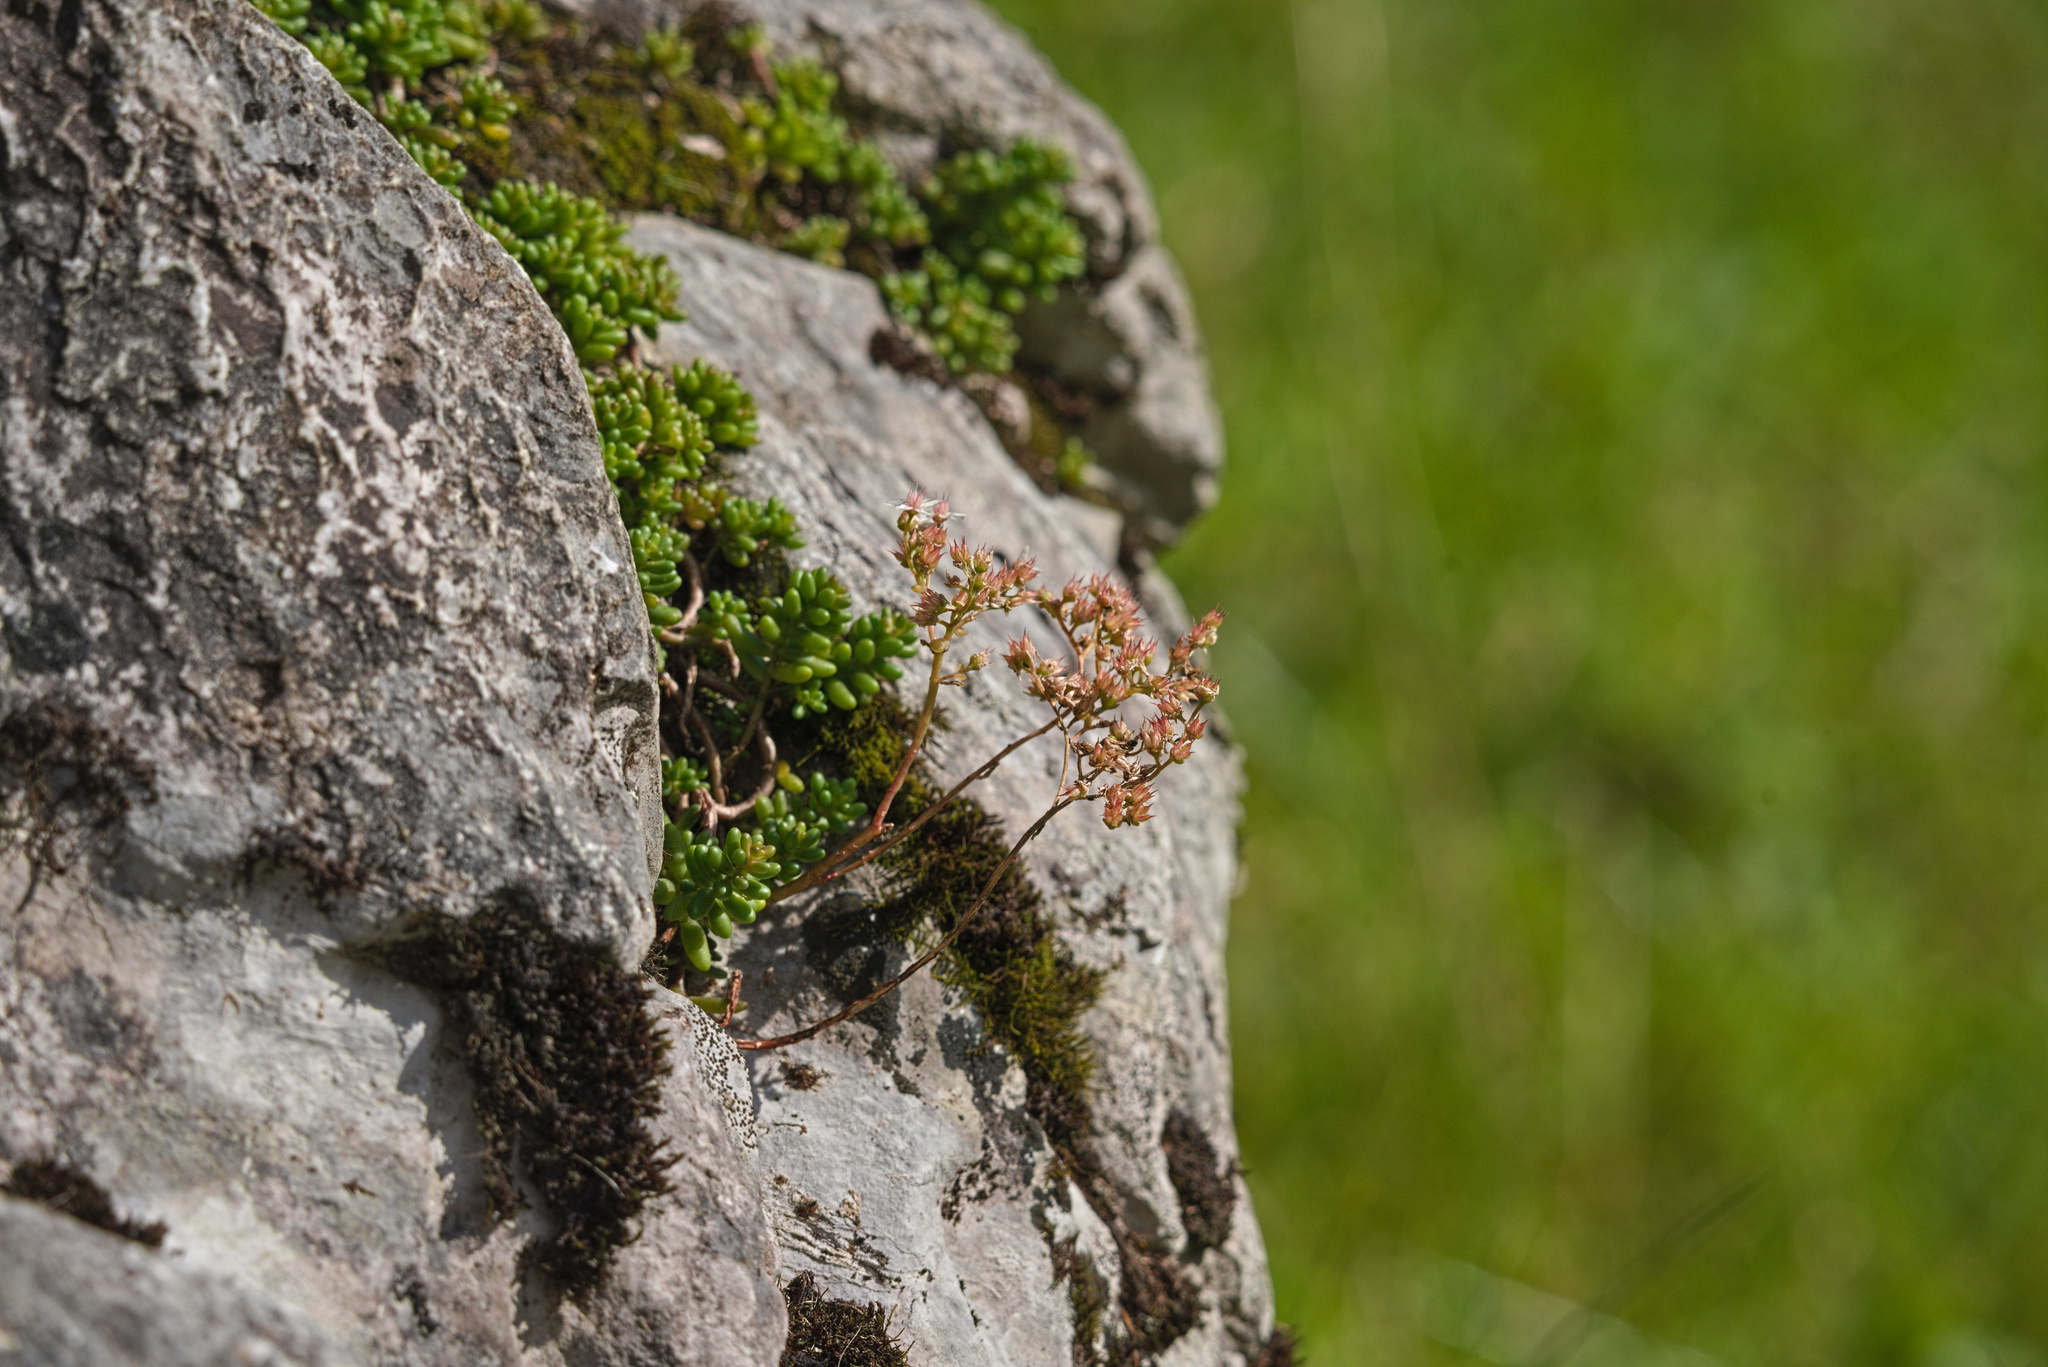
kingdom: Plantae
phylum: Tracheophyta
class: Magnoliopsida
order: Saxifragales
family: Crassulaceae
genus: Sedum
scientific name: Sedum album
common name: White stonecrop
